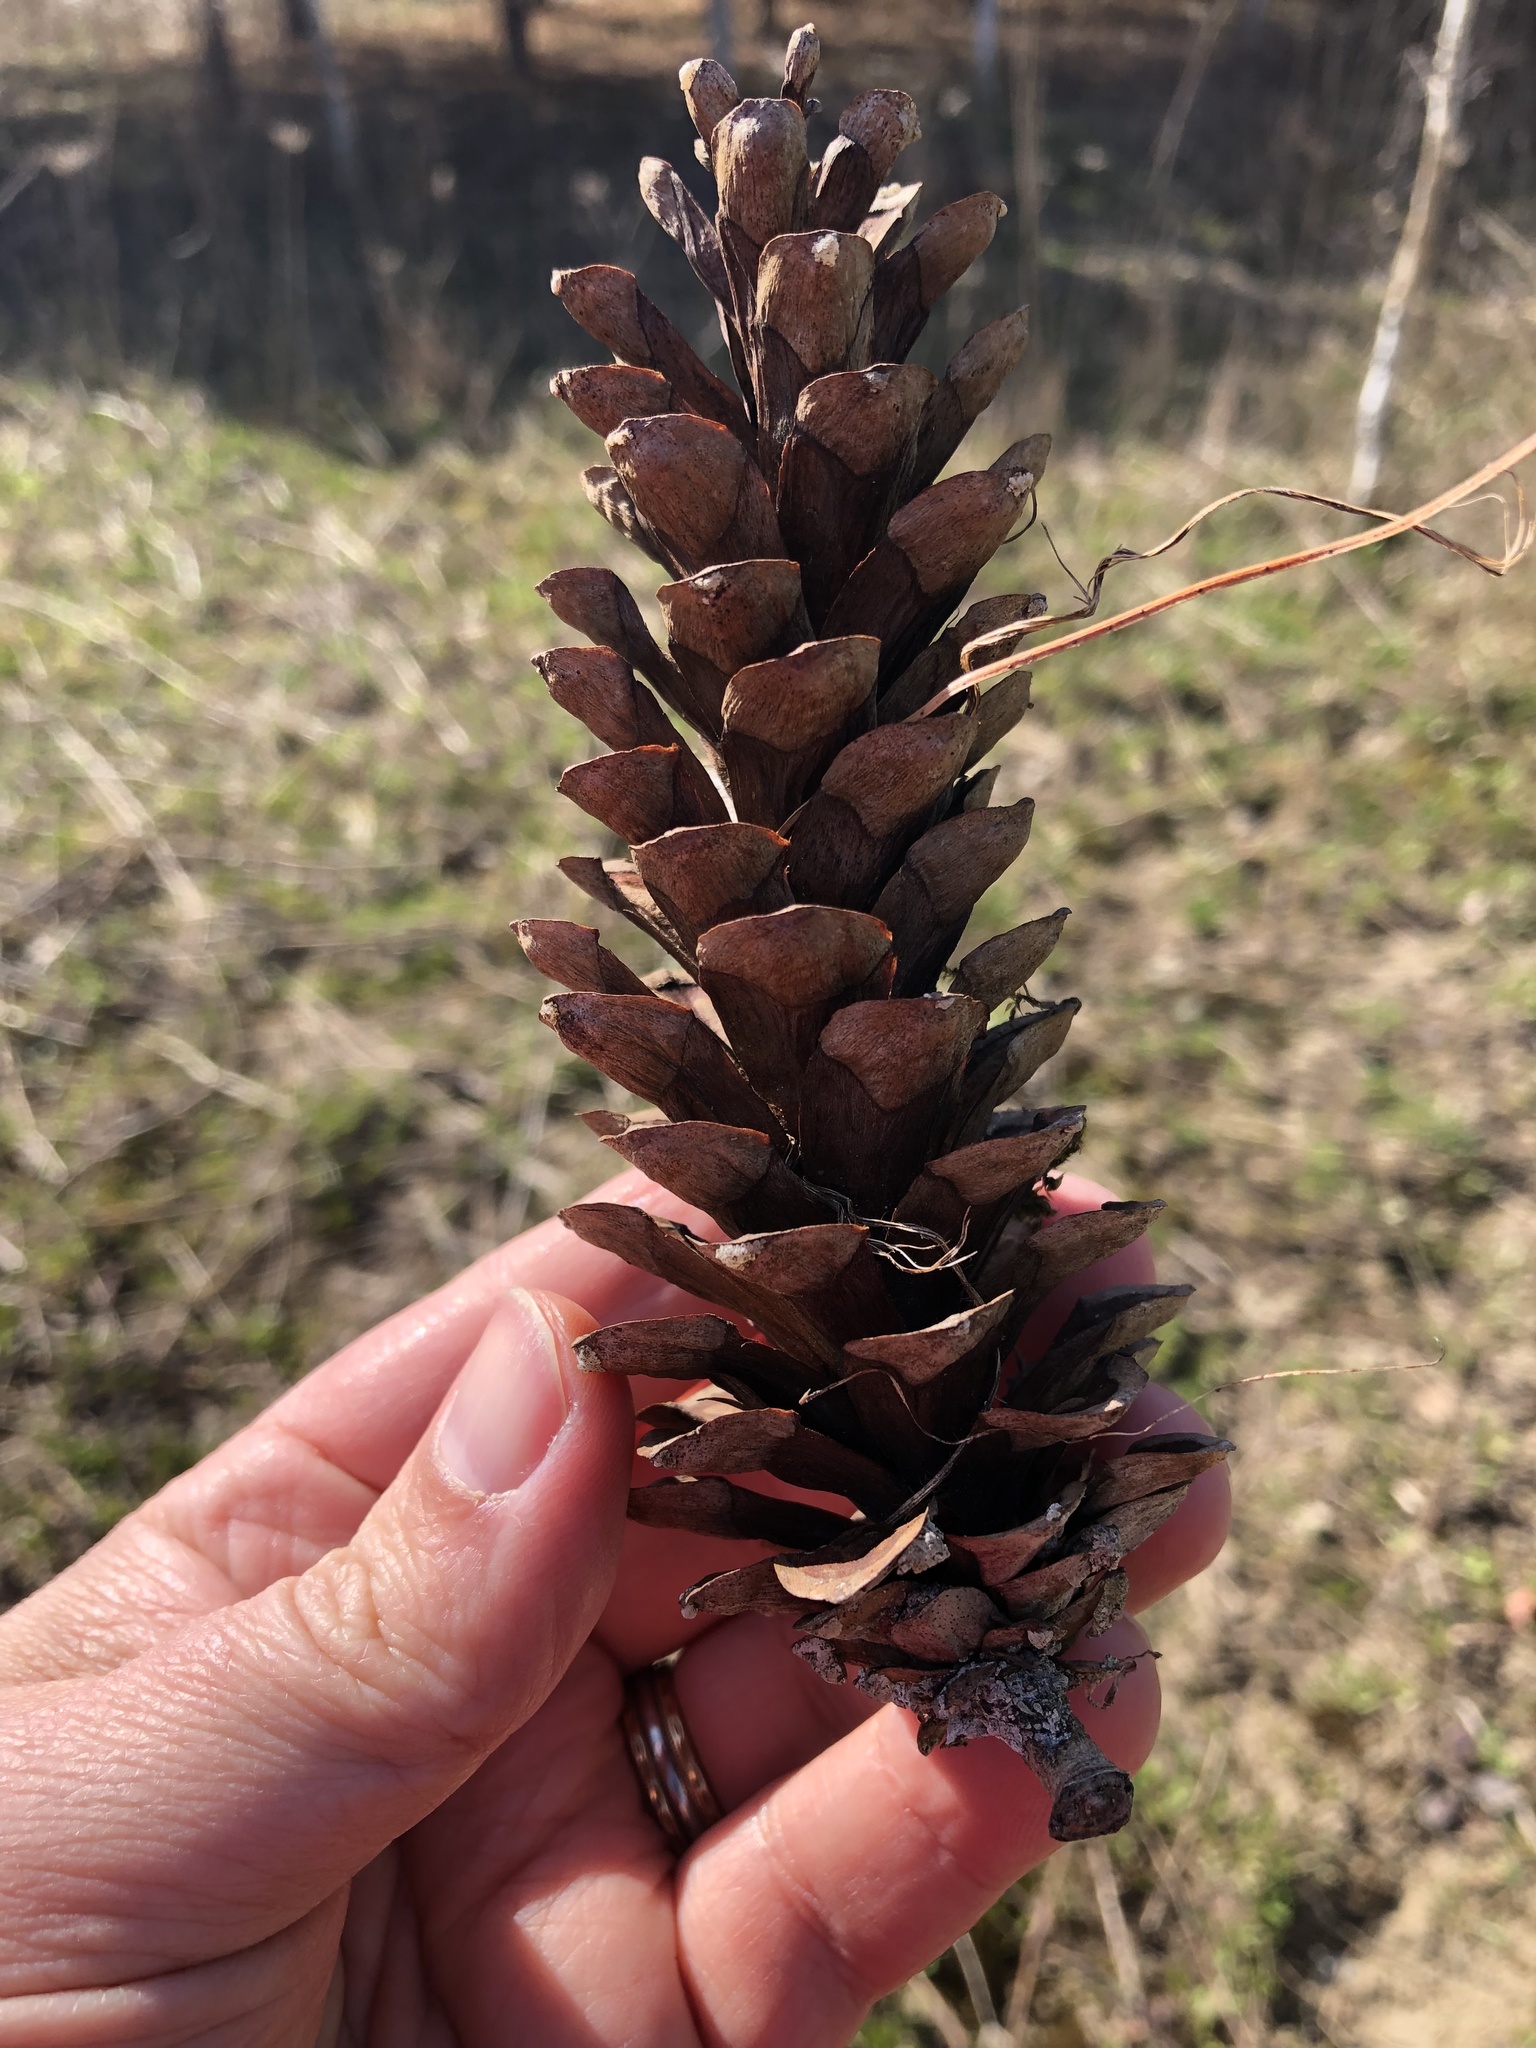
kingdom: Plantae
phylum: Tracheophyta
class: Pinopsida
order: Pinales
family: Pinaceae
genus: Pinus
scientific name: Pinus strobus
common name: Weymouth pine
